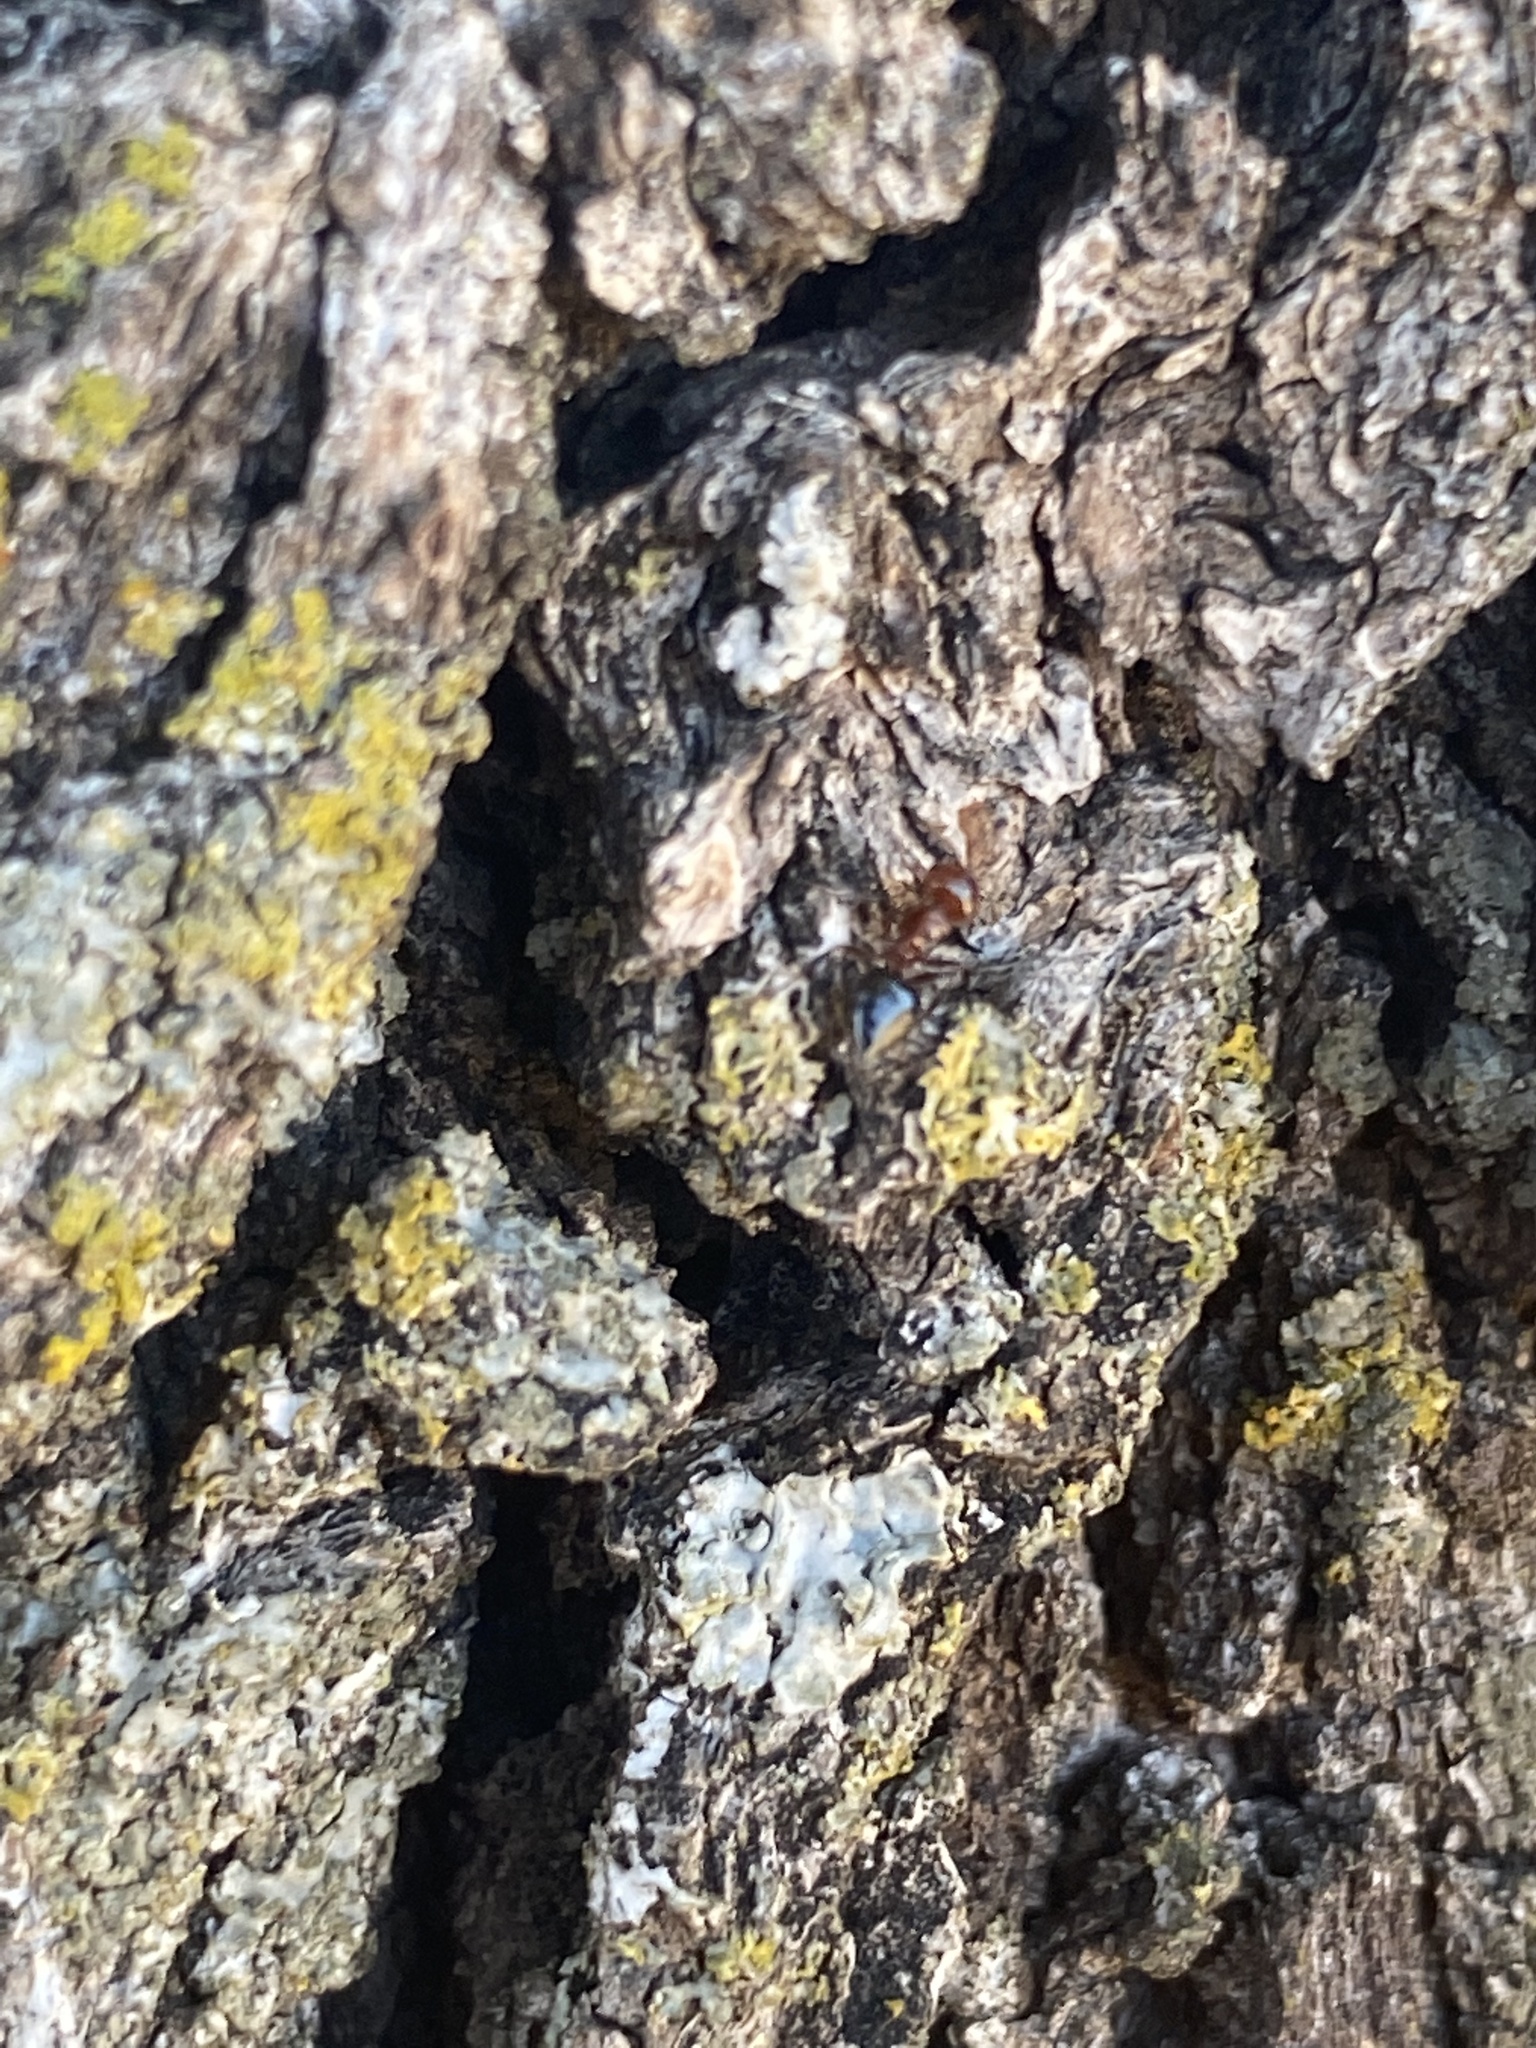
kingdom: Animalia
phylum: Arthropoda
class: Insecta
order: Hymenoptera
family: Formicidae
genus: Crematogaster
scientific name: Crematogaster laeviuscula
